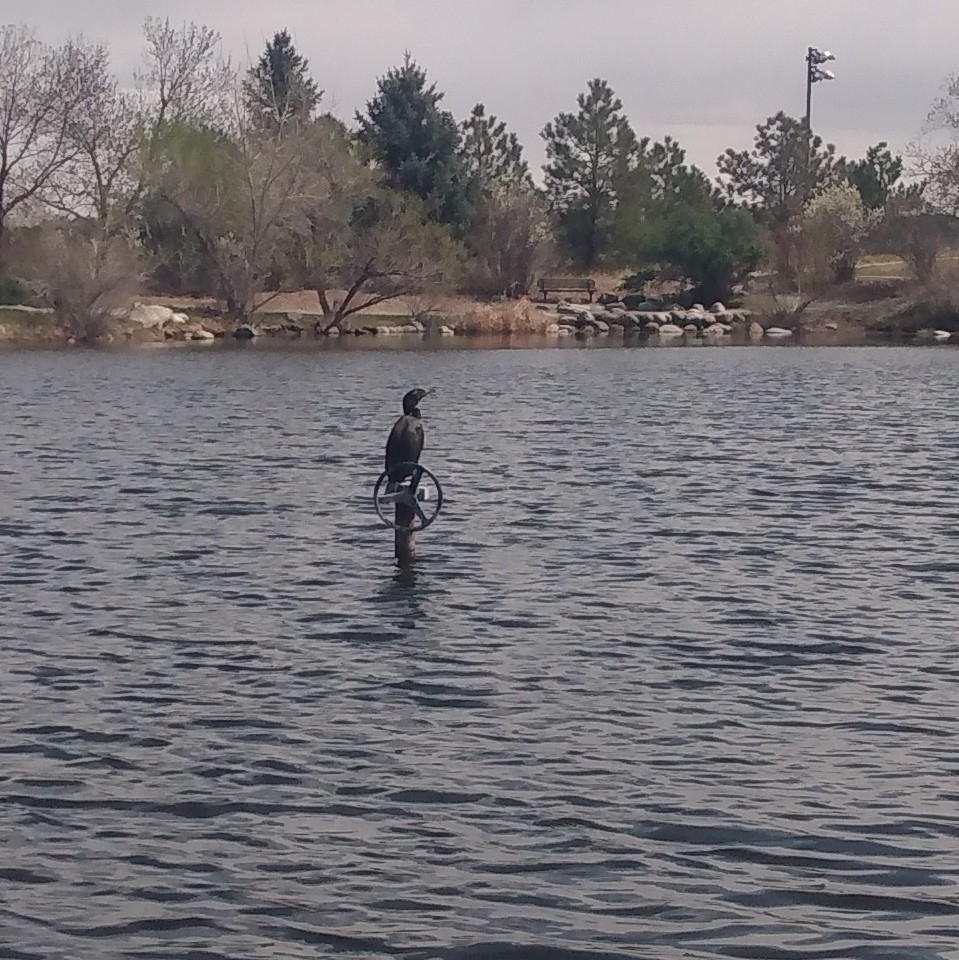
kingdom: Animalia
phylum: Chordata
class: Aves
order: Suliformes
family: Phalacrocoracidae
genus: Phalacrocorax
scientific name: Phalacrocorax auritus
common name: Double-crested cormorant
